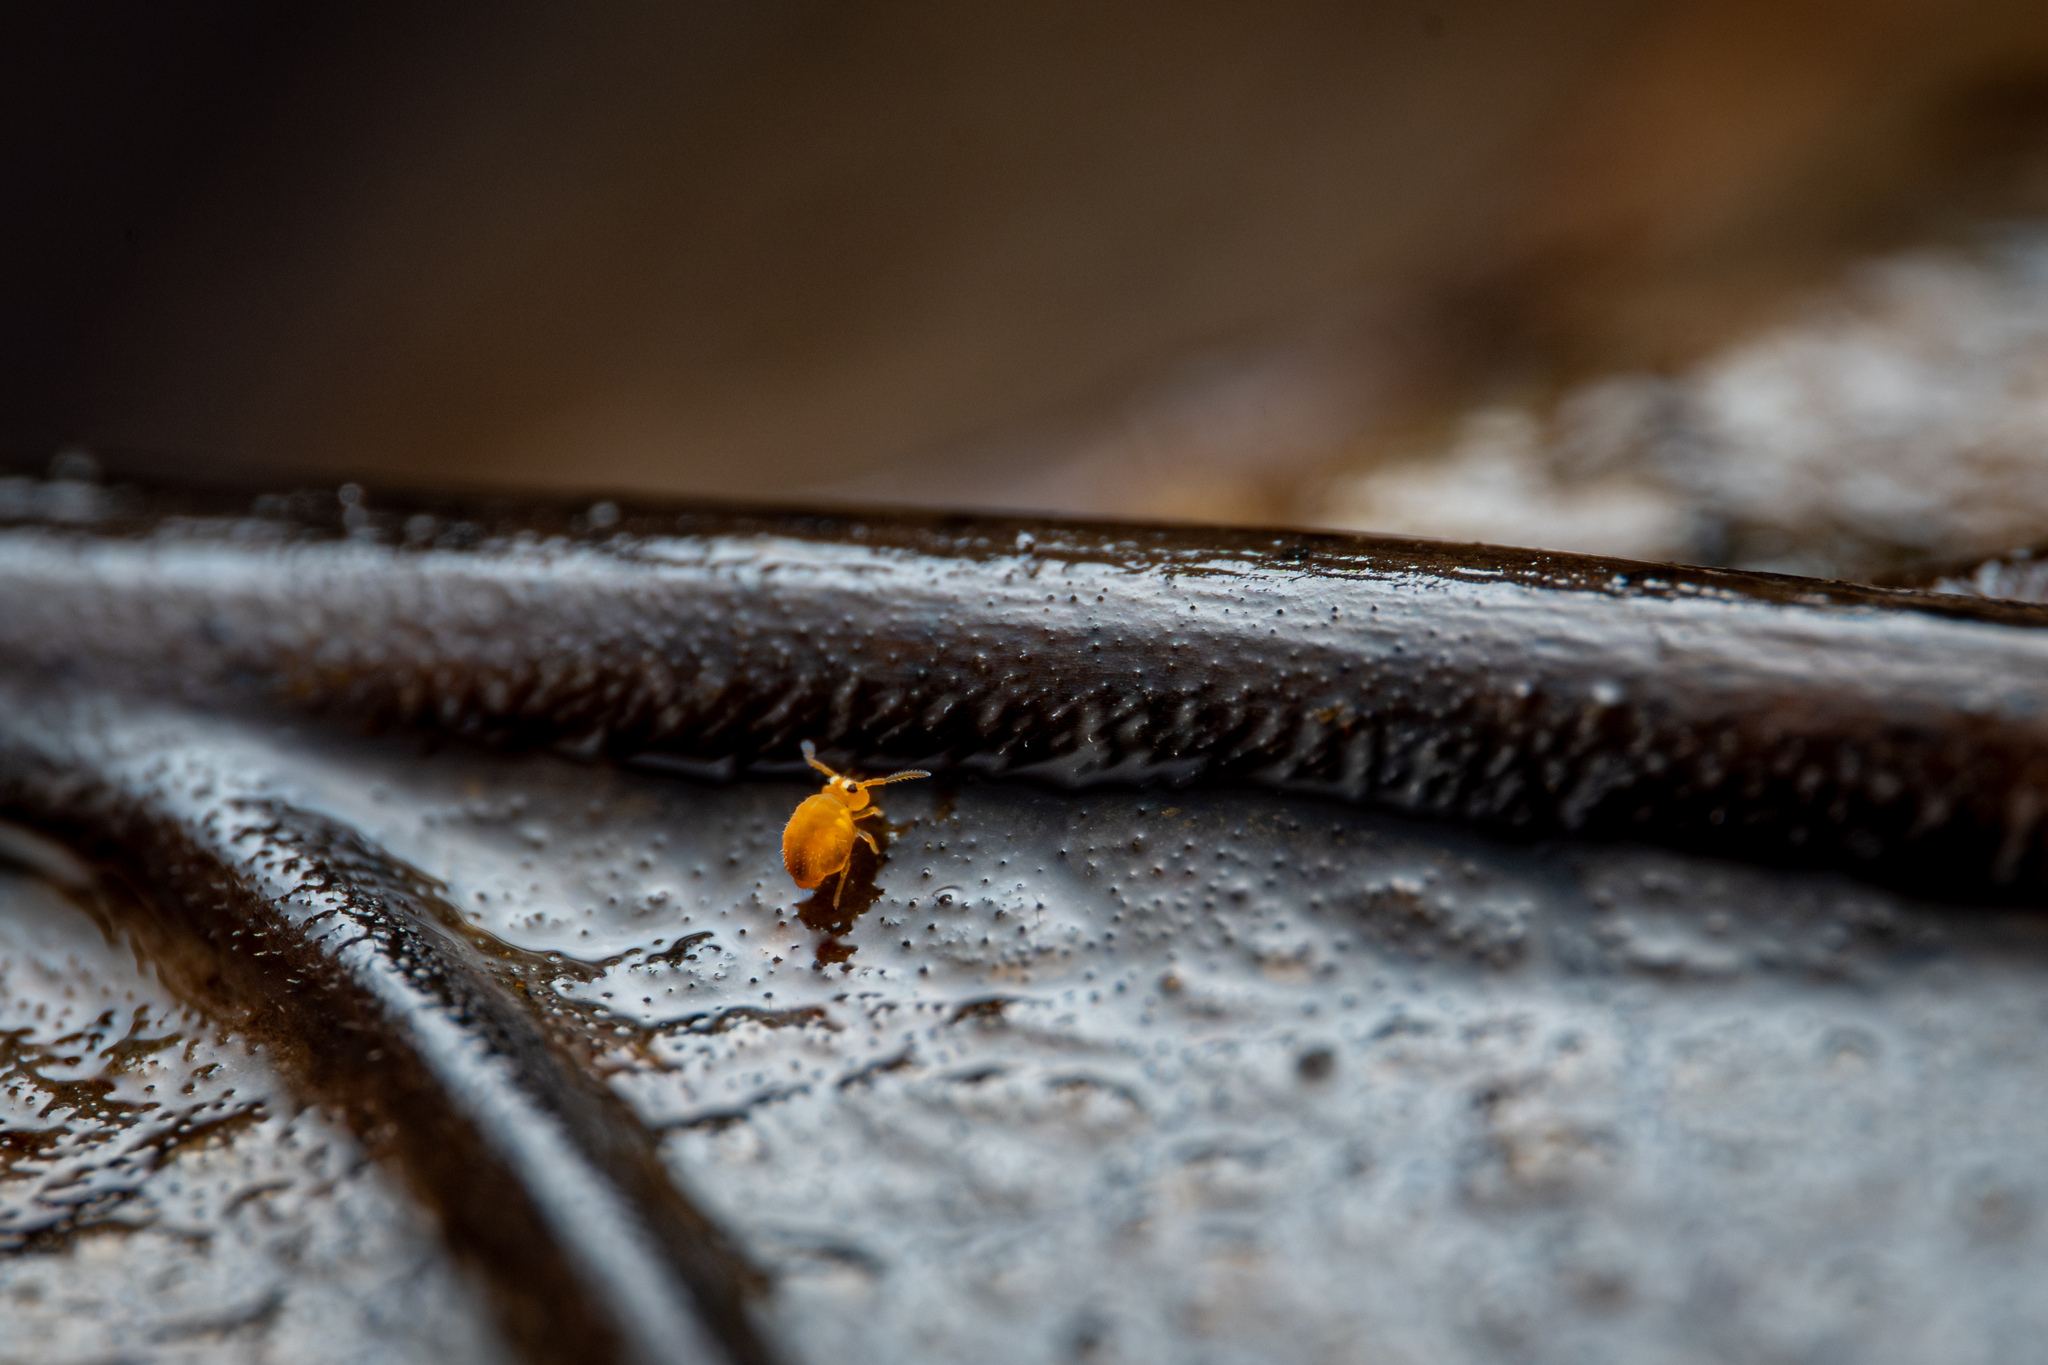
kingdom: Animalia
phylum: Arthropoda
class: Collembola
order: Symphypleona
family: Katiannidae
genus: Sminthurinus
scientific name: Sminthurinus henshawi
